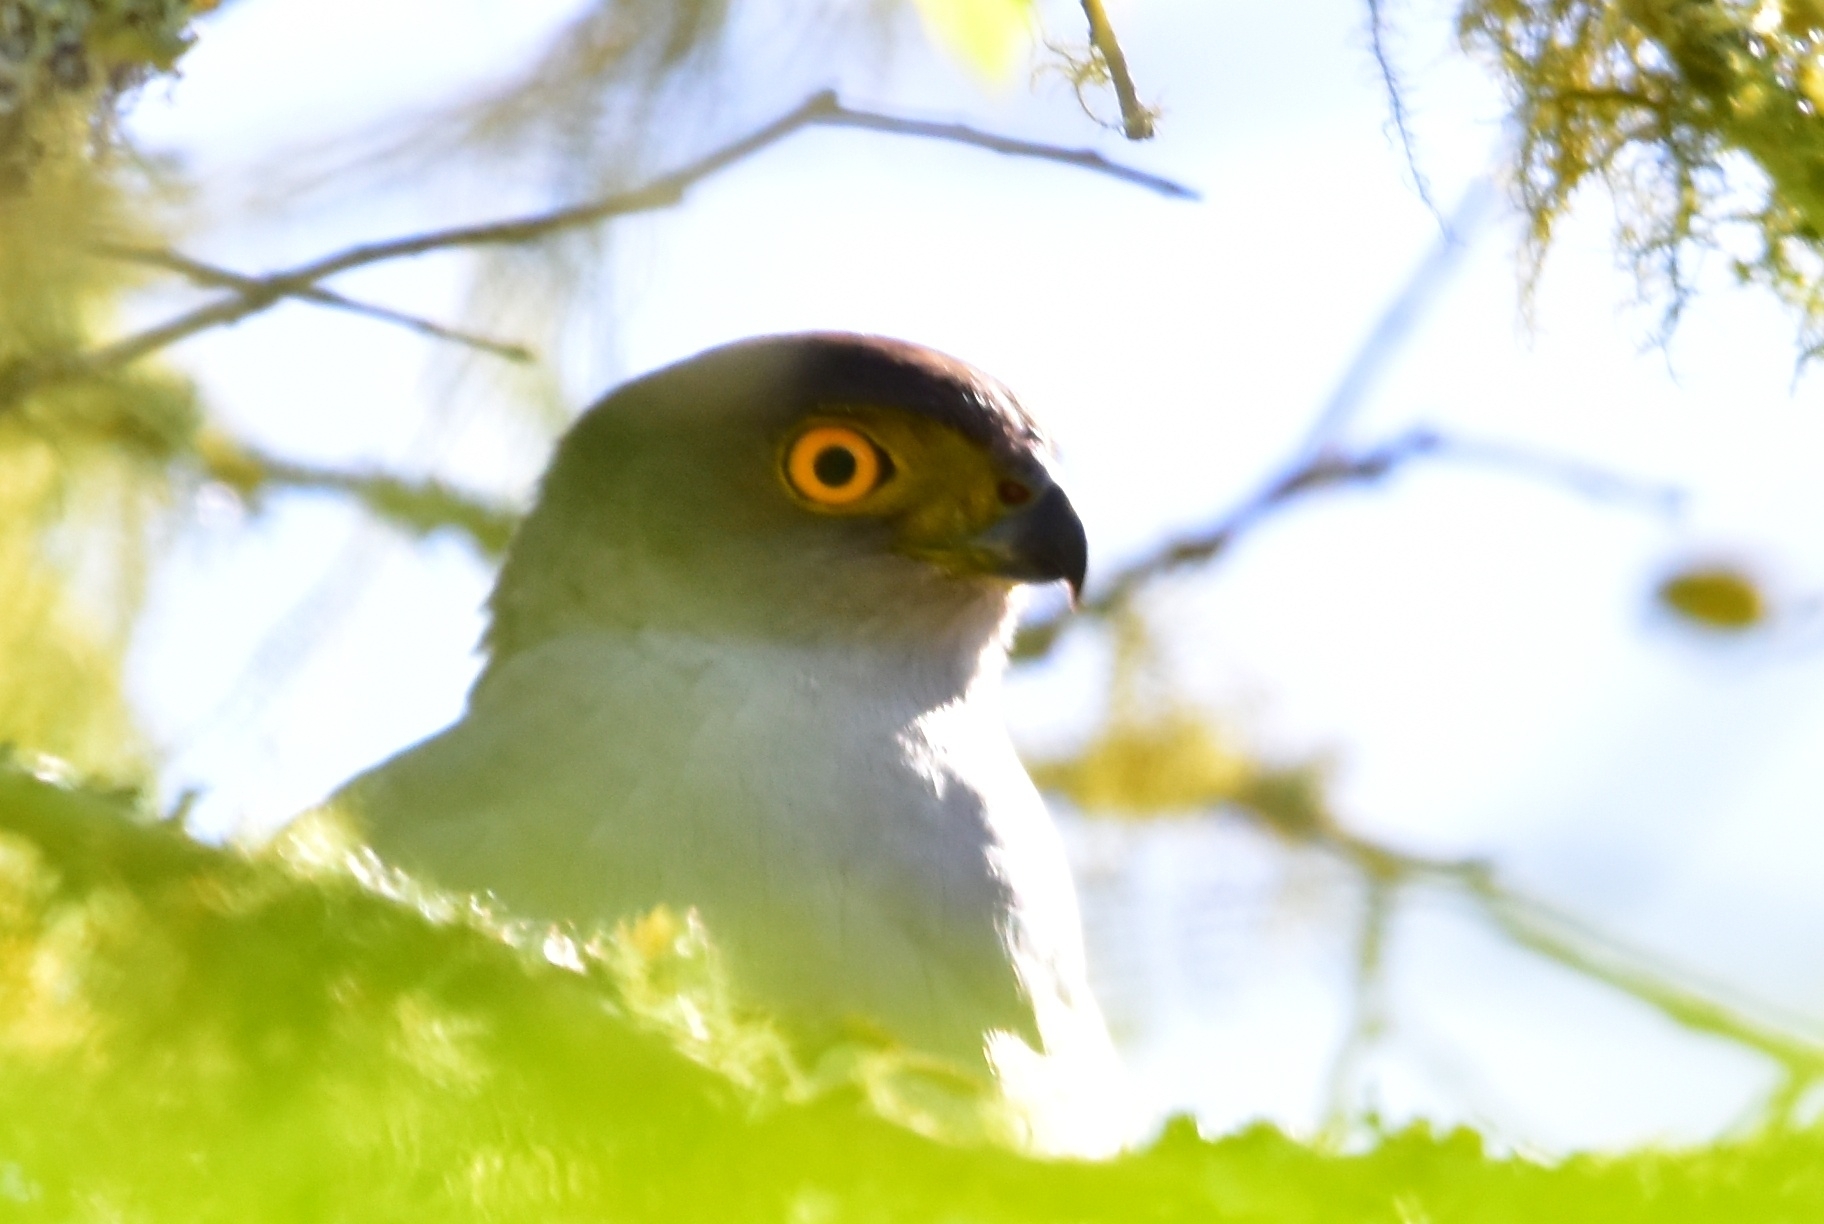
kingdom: Animalia
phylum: Chordata
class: Aves
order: Accipitriformes
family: Accipitridae
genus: Accipiter
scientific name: Accipiter bicolor
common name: Bicolored hawk
